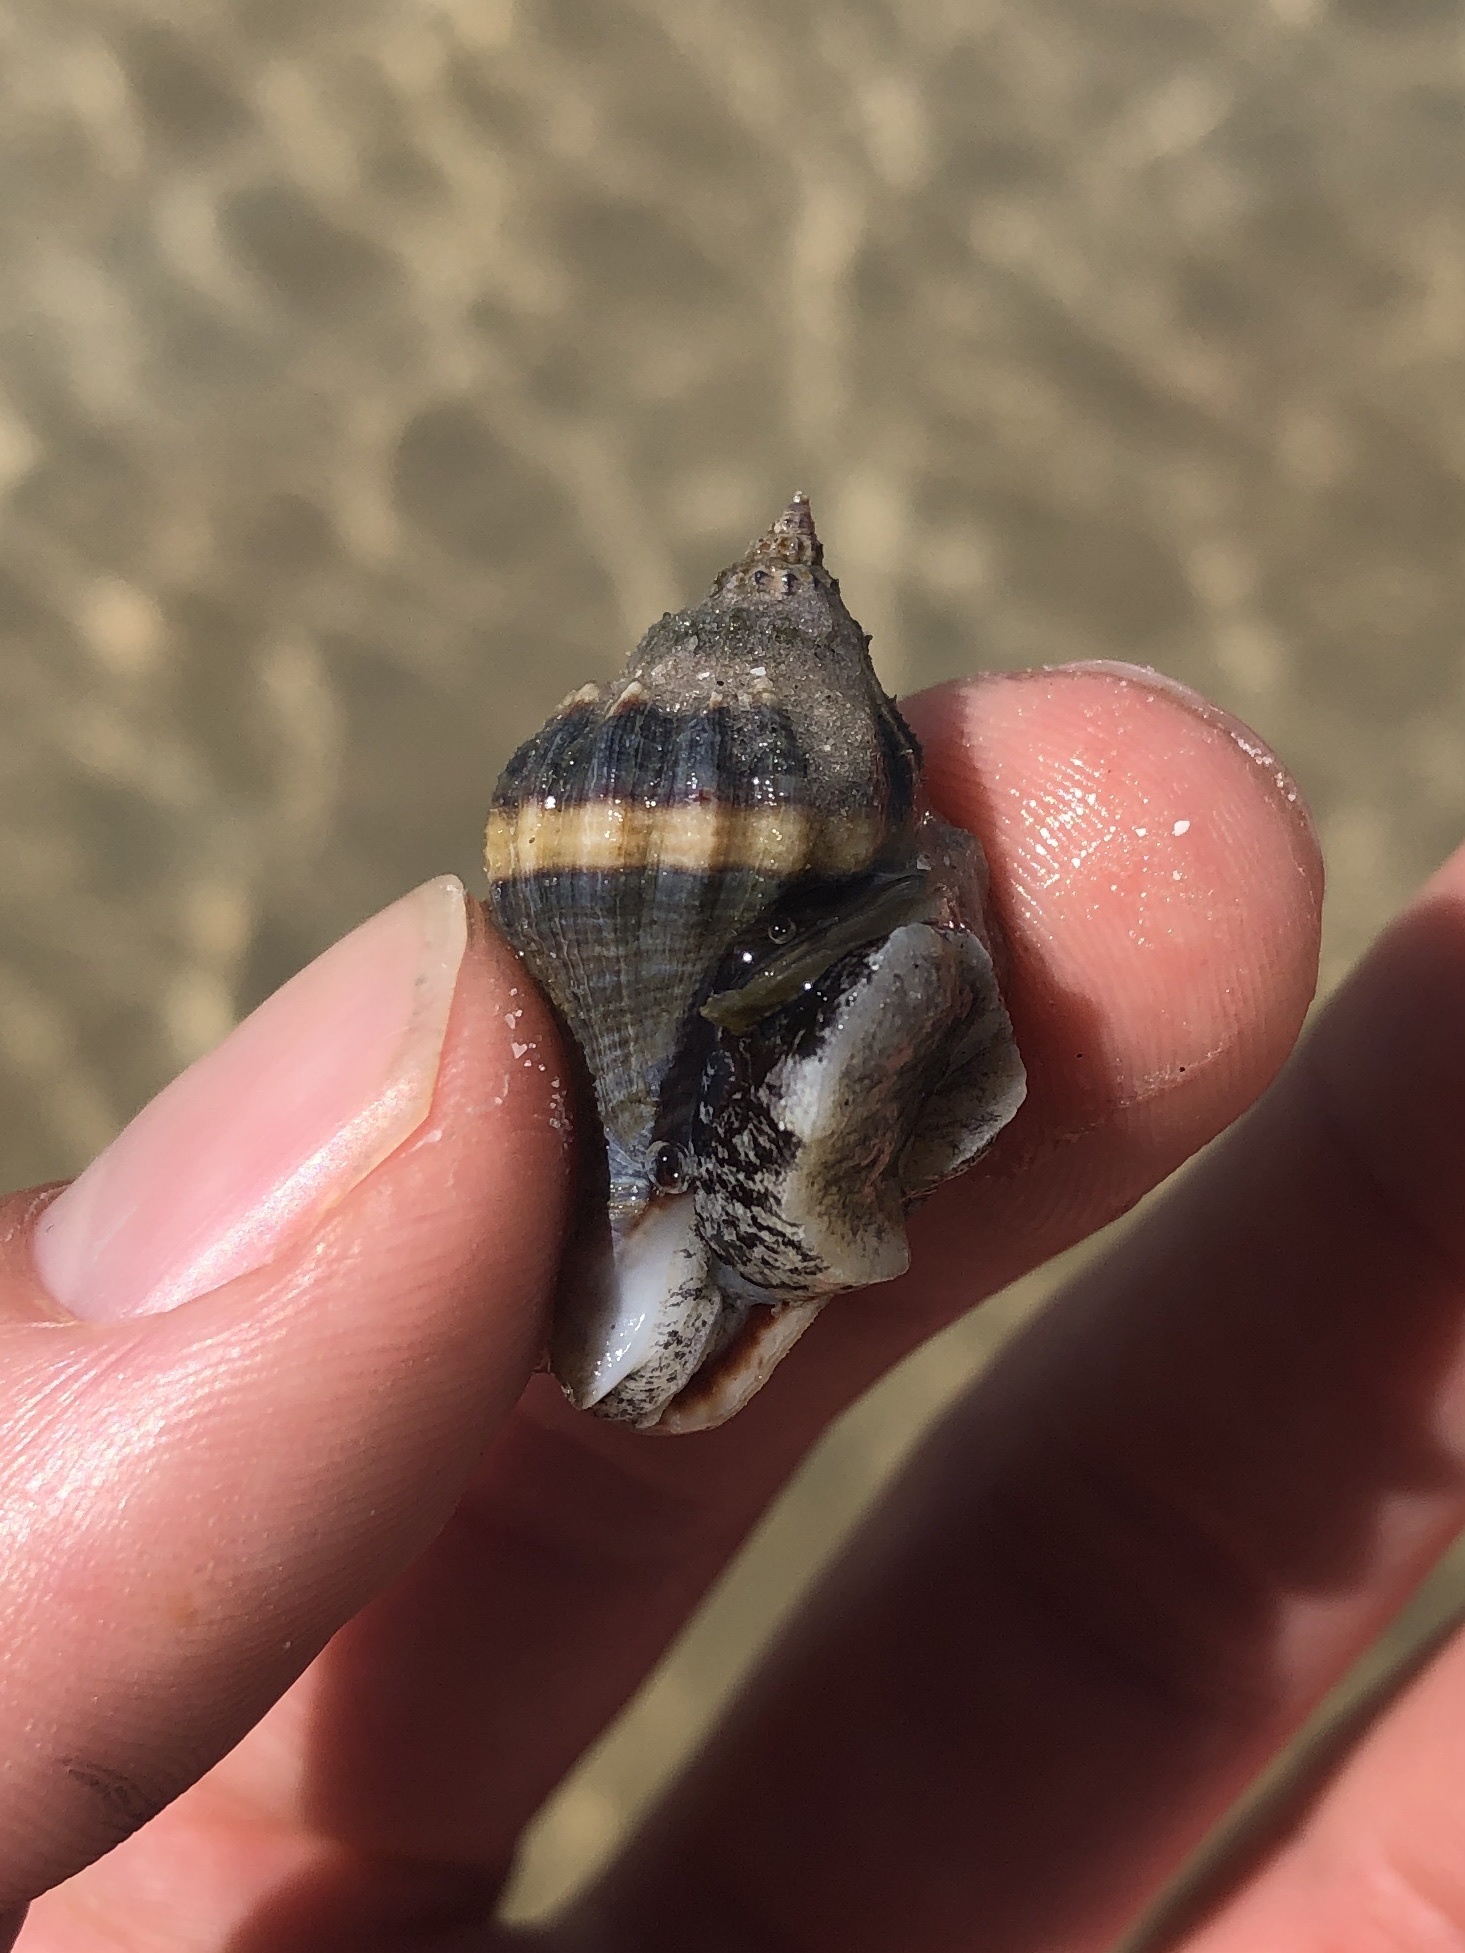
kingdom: Animalia
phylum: Mollusca
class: Gastropoda
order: Neogastropoda
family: Melongenidae
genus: Melongena
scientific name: Melongena corona
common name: American crown conch
